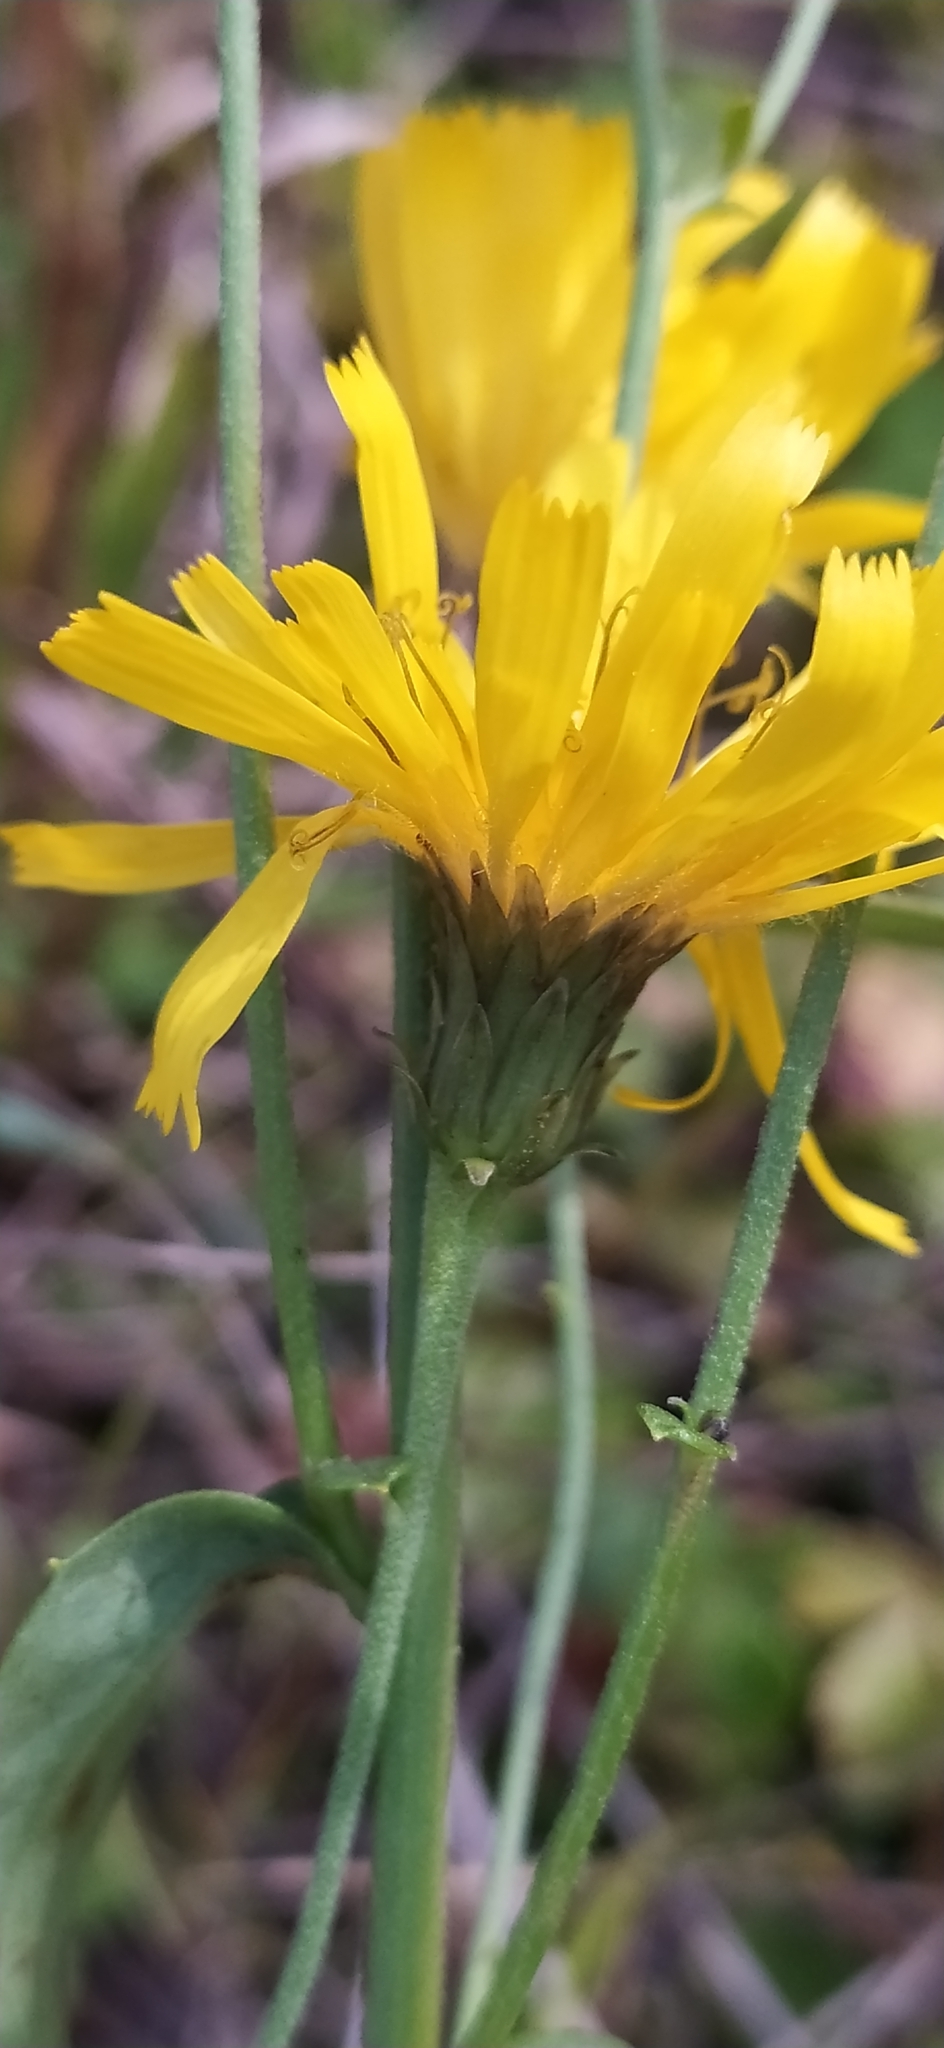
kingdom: Plantae
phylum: Tracheophyta
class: Magnoliopsida
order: Asterales
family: Asteraceae
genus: Hieracium
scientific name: Hieracium umbellatum
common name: Northern hawkweed
